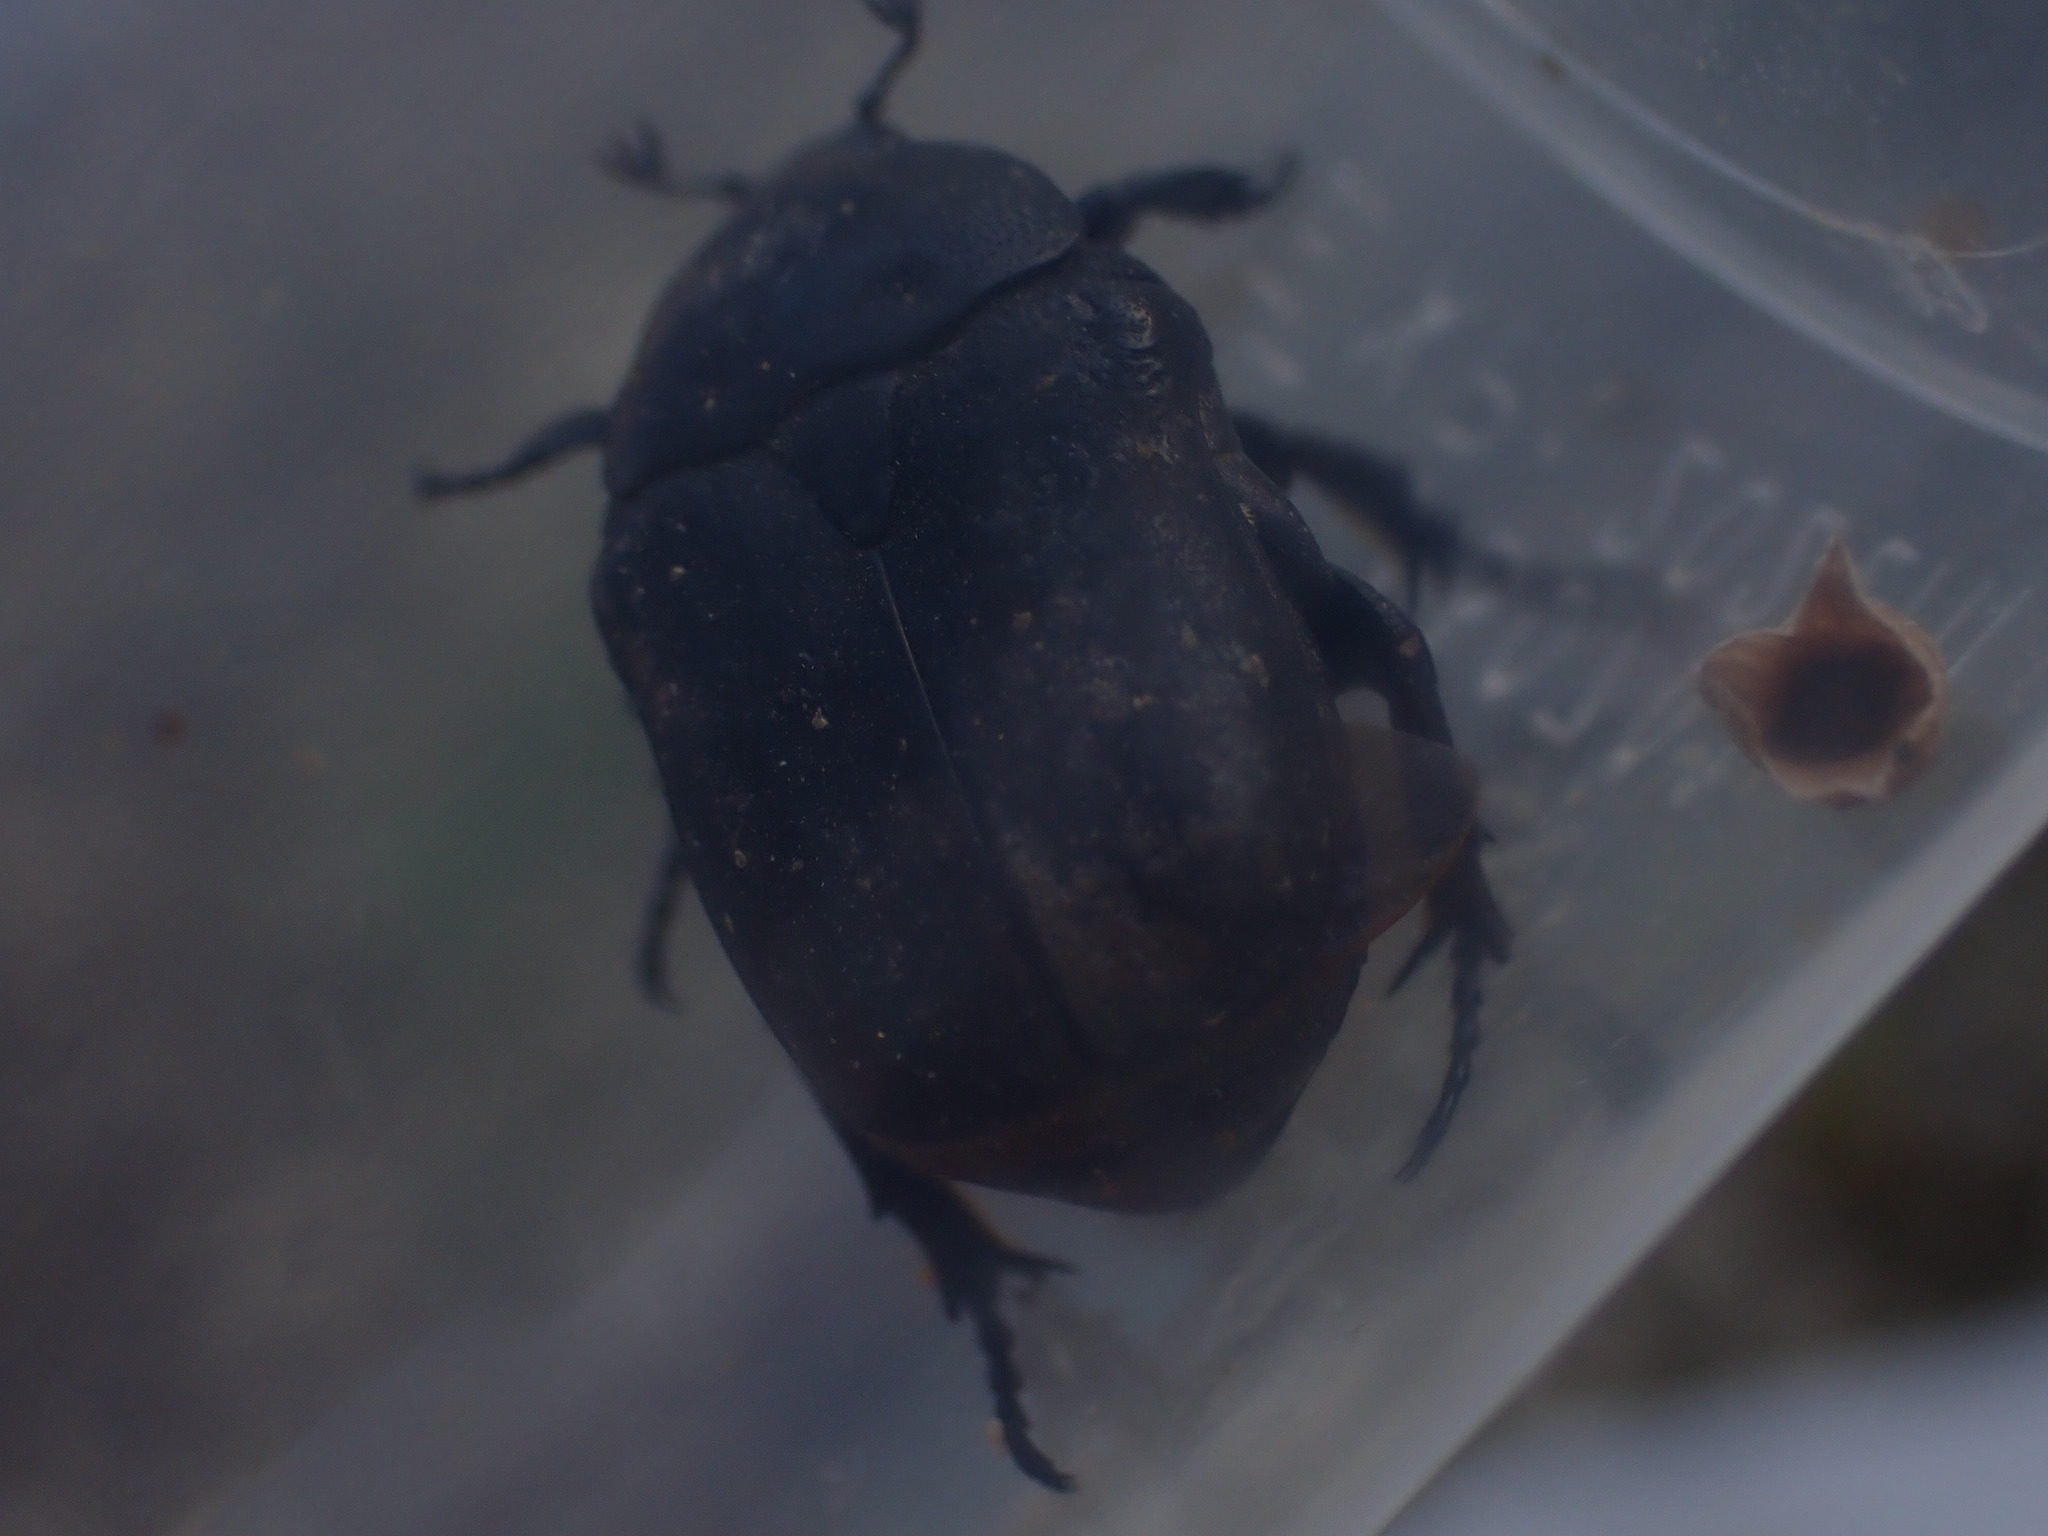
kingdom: Animalia
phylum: Arthropoda
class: Insecta
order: Coleoptera
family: Scarabaeidae
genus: Protaetia
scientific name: Protaetia morio
